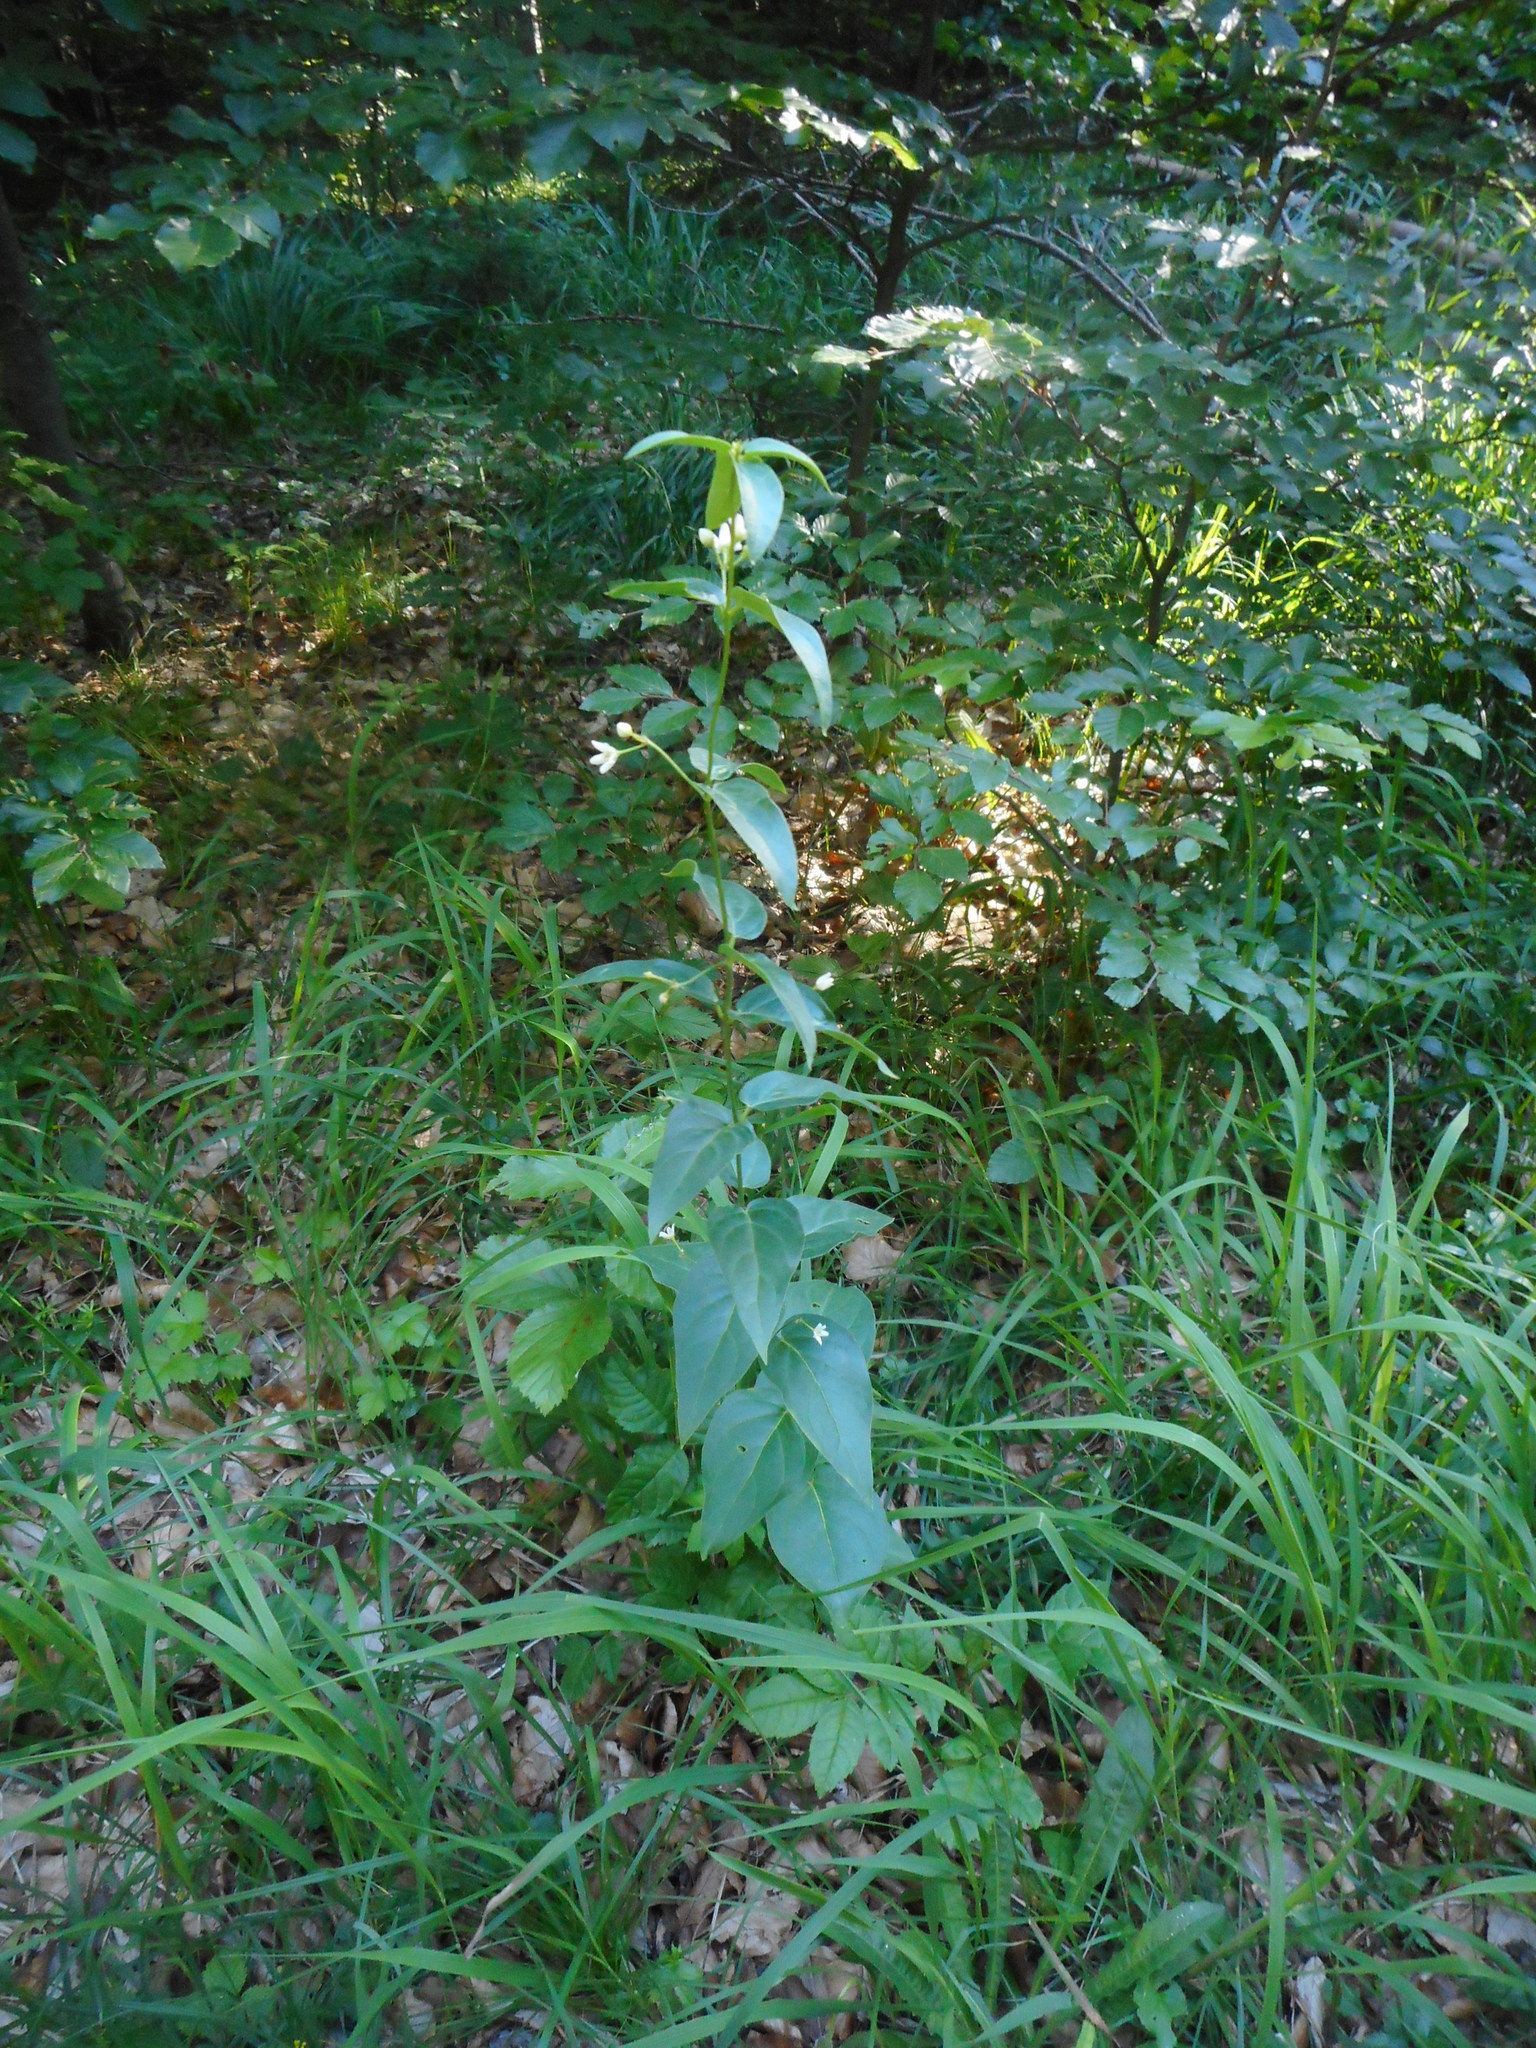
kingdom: Plantae
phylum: Tracheophyta
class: Magnoliopsida
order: Gentianales
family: Apocynaceae
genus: Vincetoxicum
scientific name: Vincetoxicum hirundinaria
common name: White swallowwort
